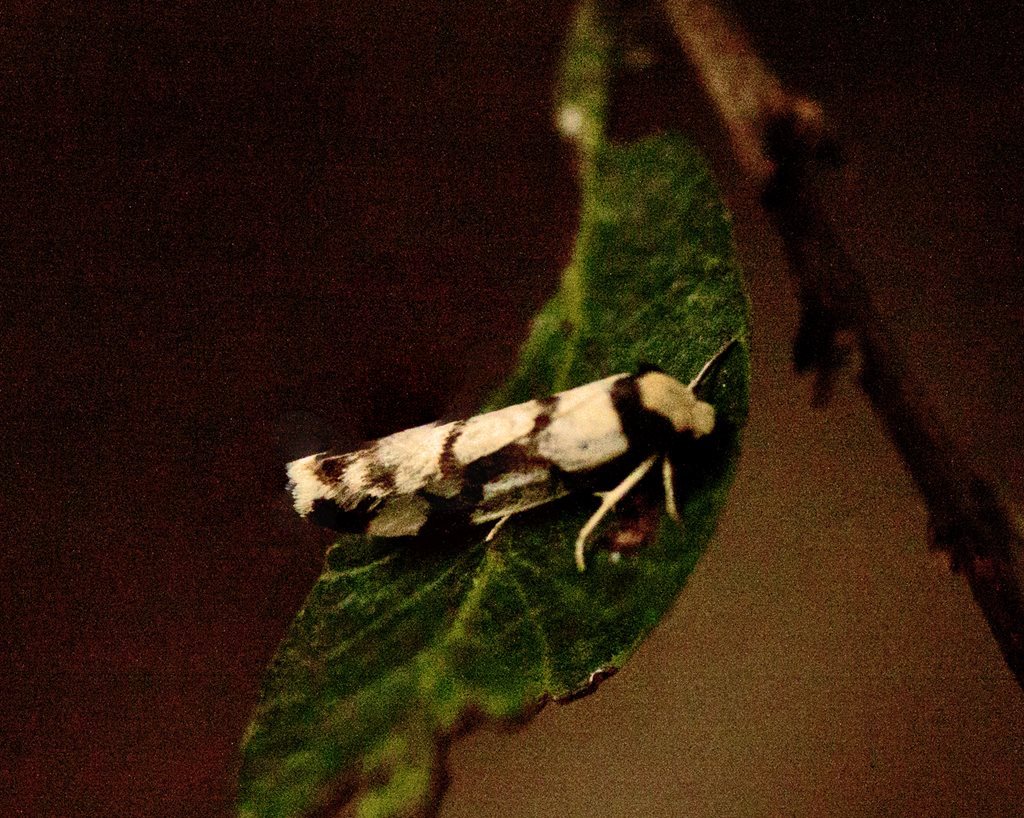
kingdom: Animalia
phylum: Arthropoda
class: Insecta
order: Lepidoptera
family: Erebidae
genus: Scaptesyle
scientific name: Scaptesyle dichotoma
